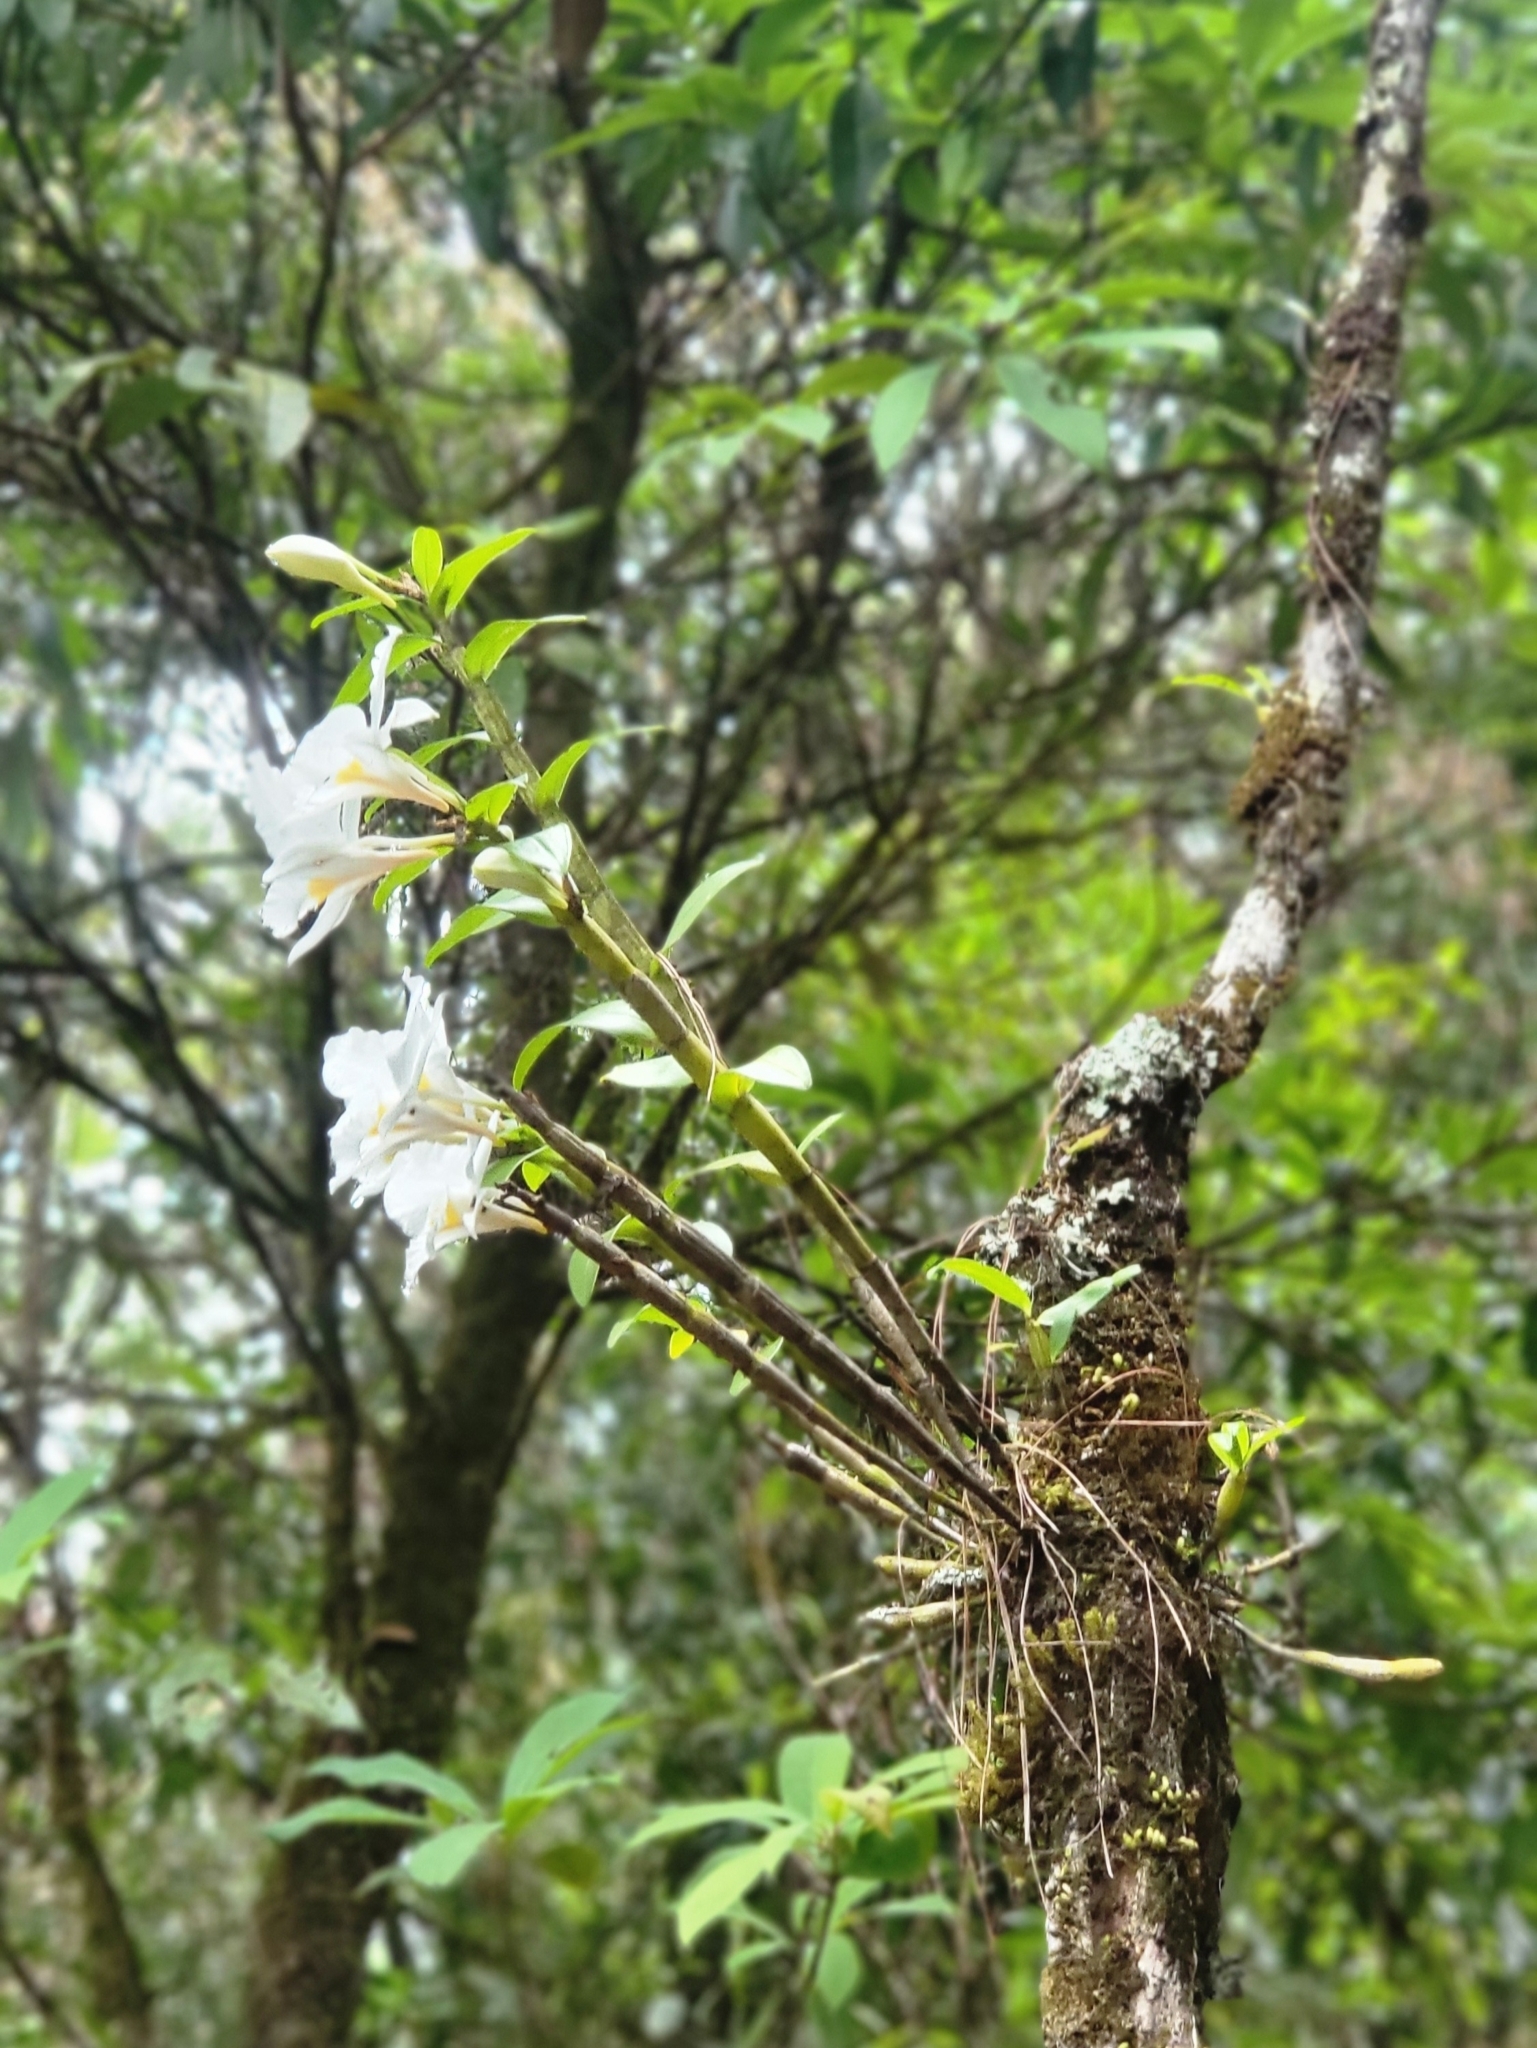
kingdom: Plantae
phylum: Tracheophyta
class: Liliopsida
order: Asparagales
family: Orchidaceae
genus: Dendrobium
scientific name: Dendrobium infundibulum
